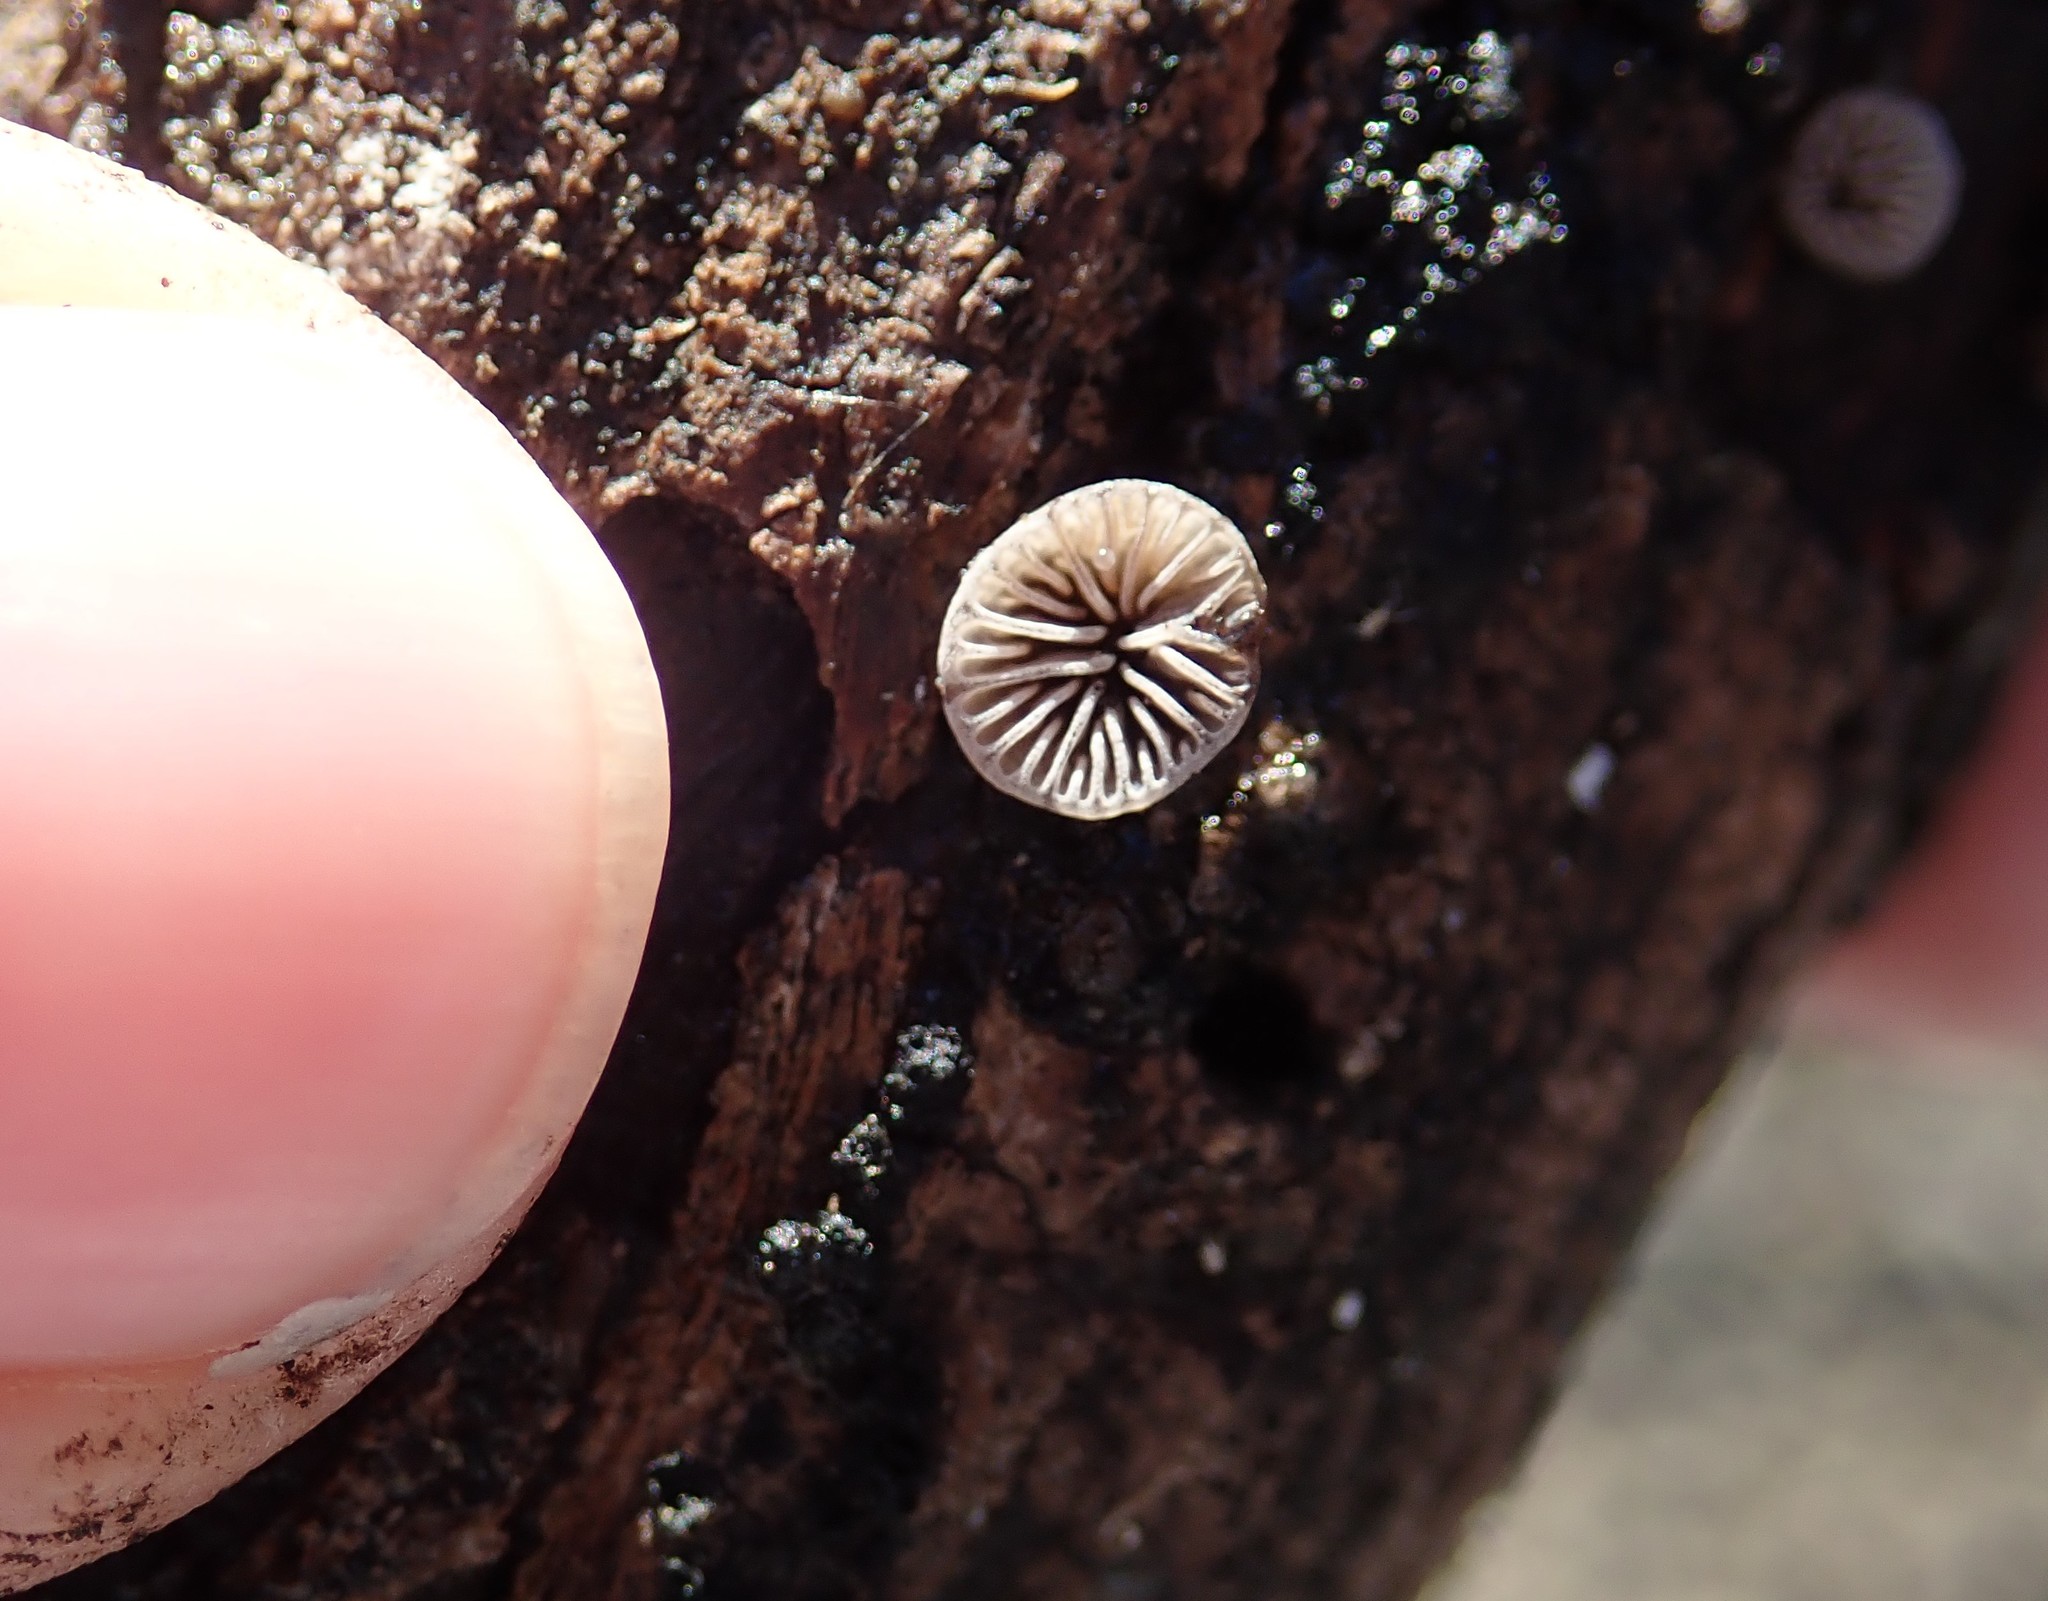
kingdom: Fungi
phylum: Basidiomycota
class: Agaricomycetes
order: Agaricales
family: Pleurotaceae
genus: Resupinatus
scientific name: Resupinatus applicatus
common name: Smoked oysterling
